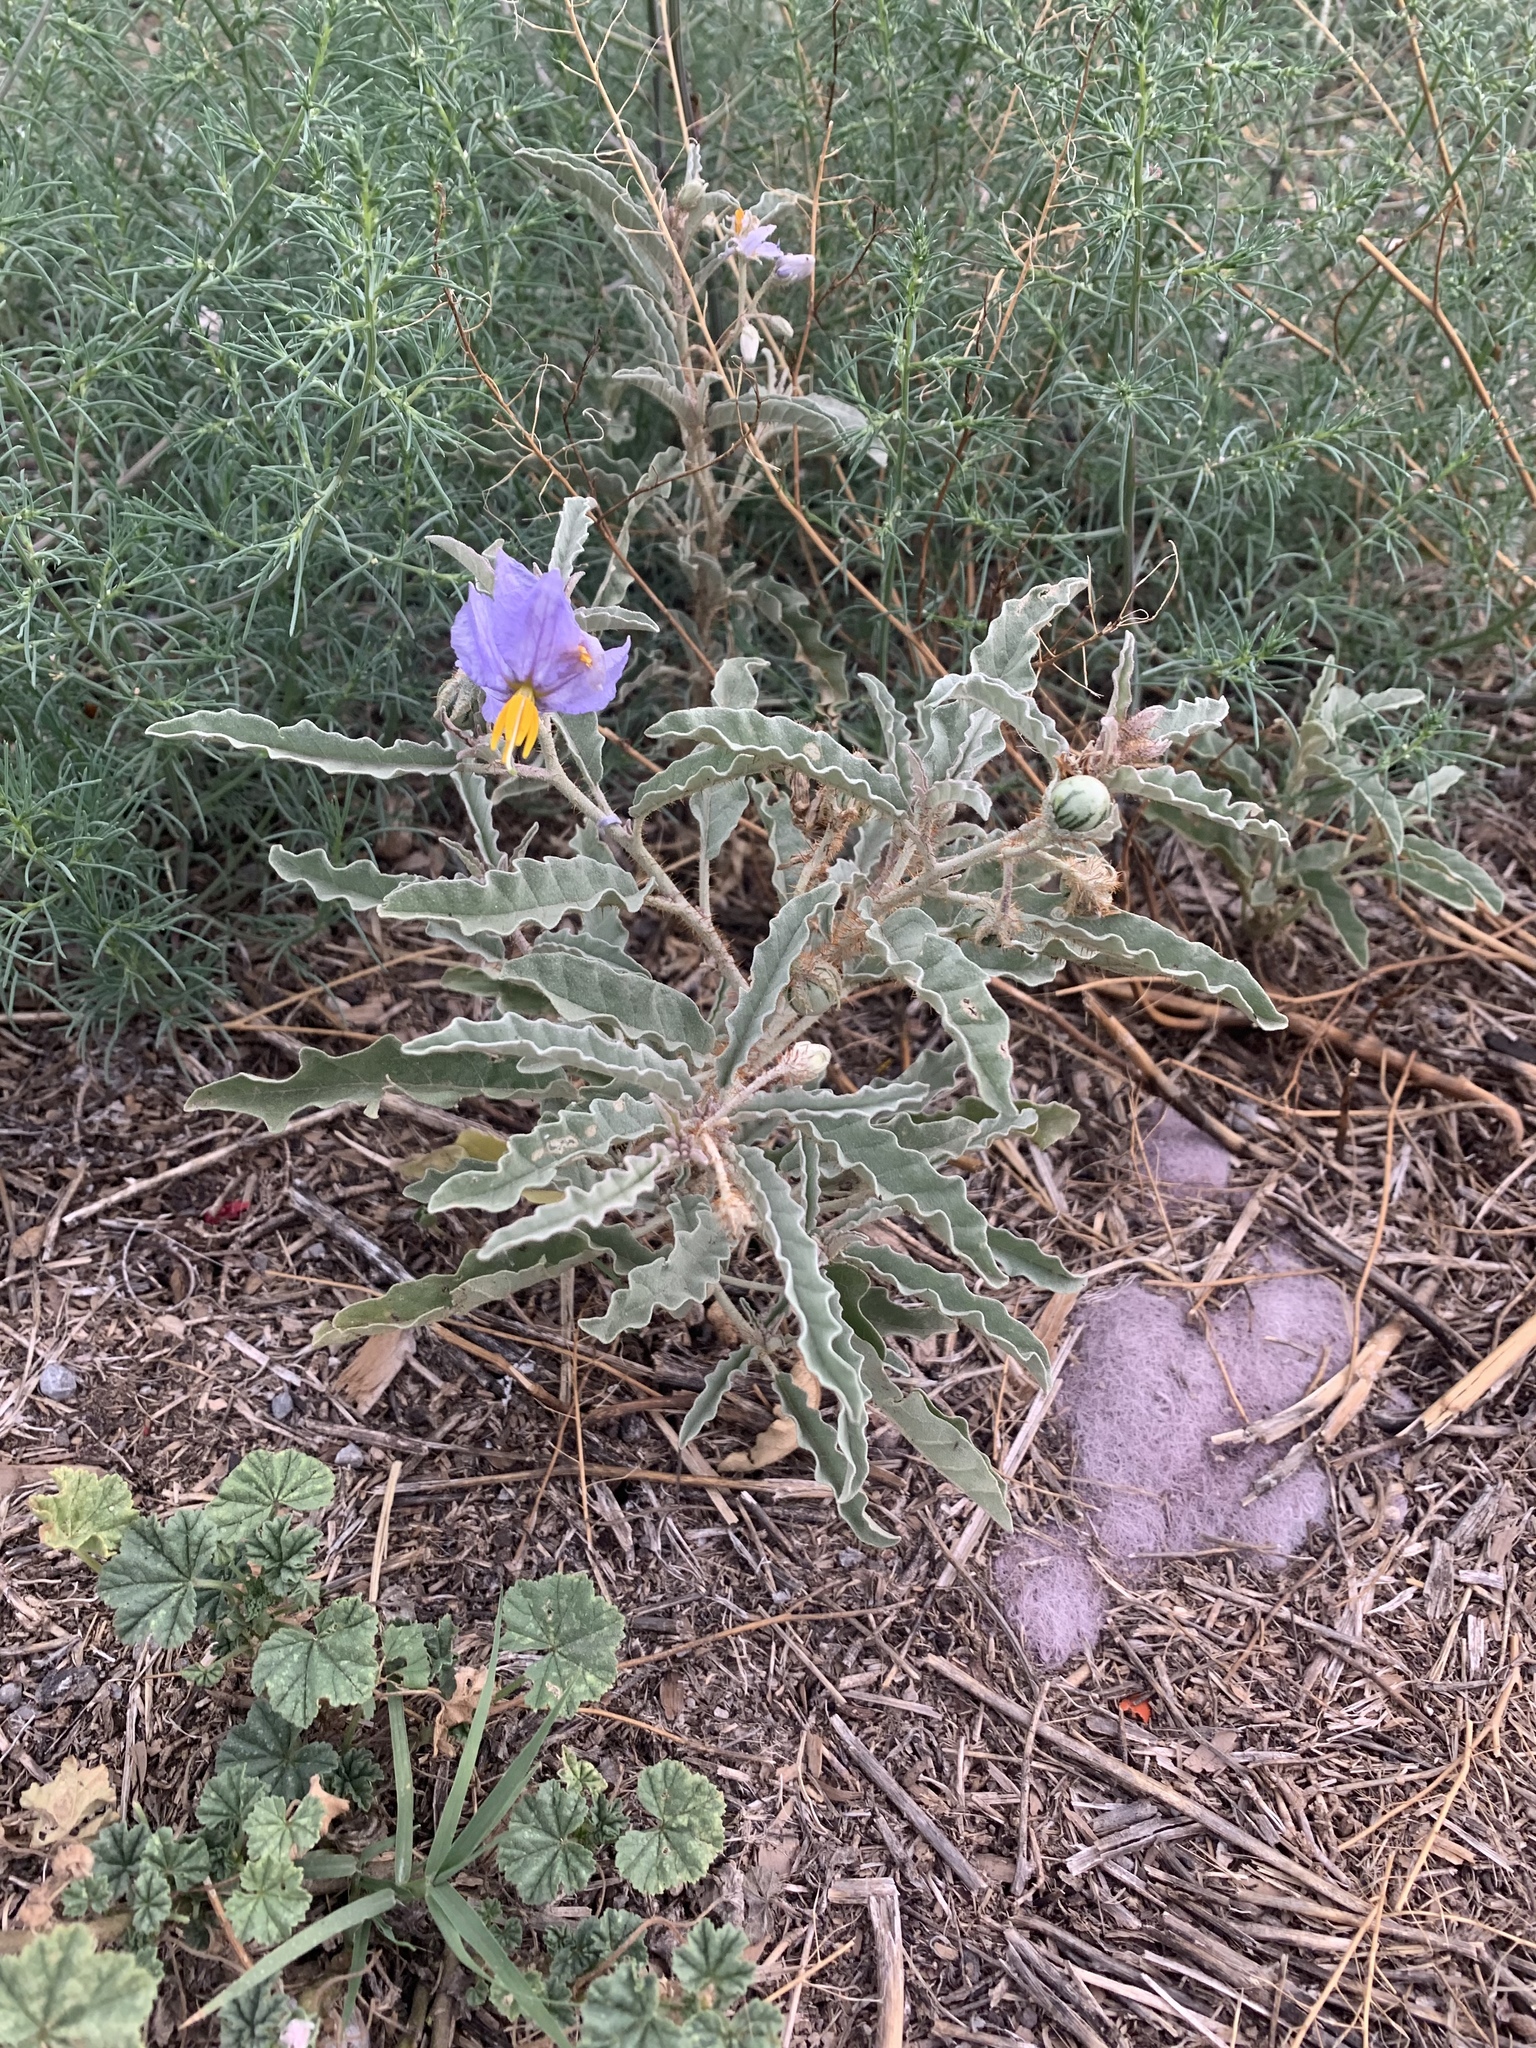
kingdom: Plantae
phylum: Tracheophyta
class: Magnoliopsida
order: Solanales
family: Solanaceae
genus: Solanum
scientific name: Solanum elaeagnifolium
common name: Silverleaf nightshade
